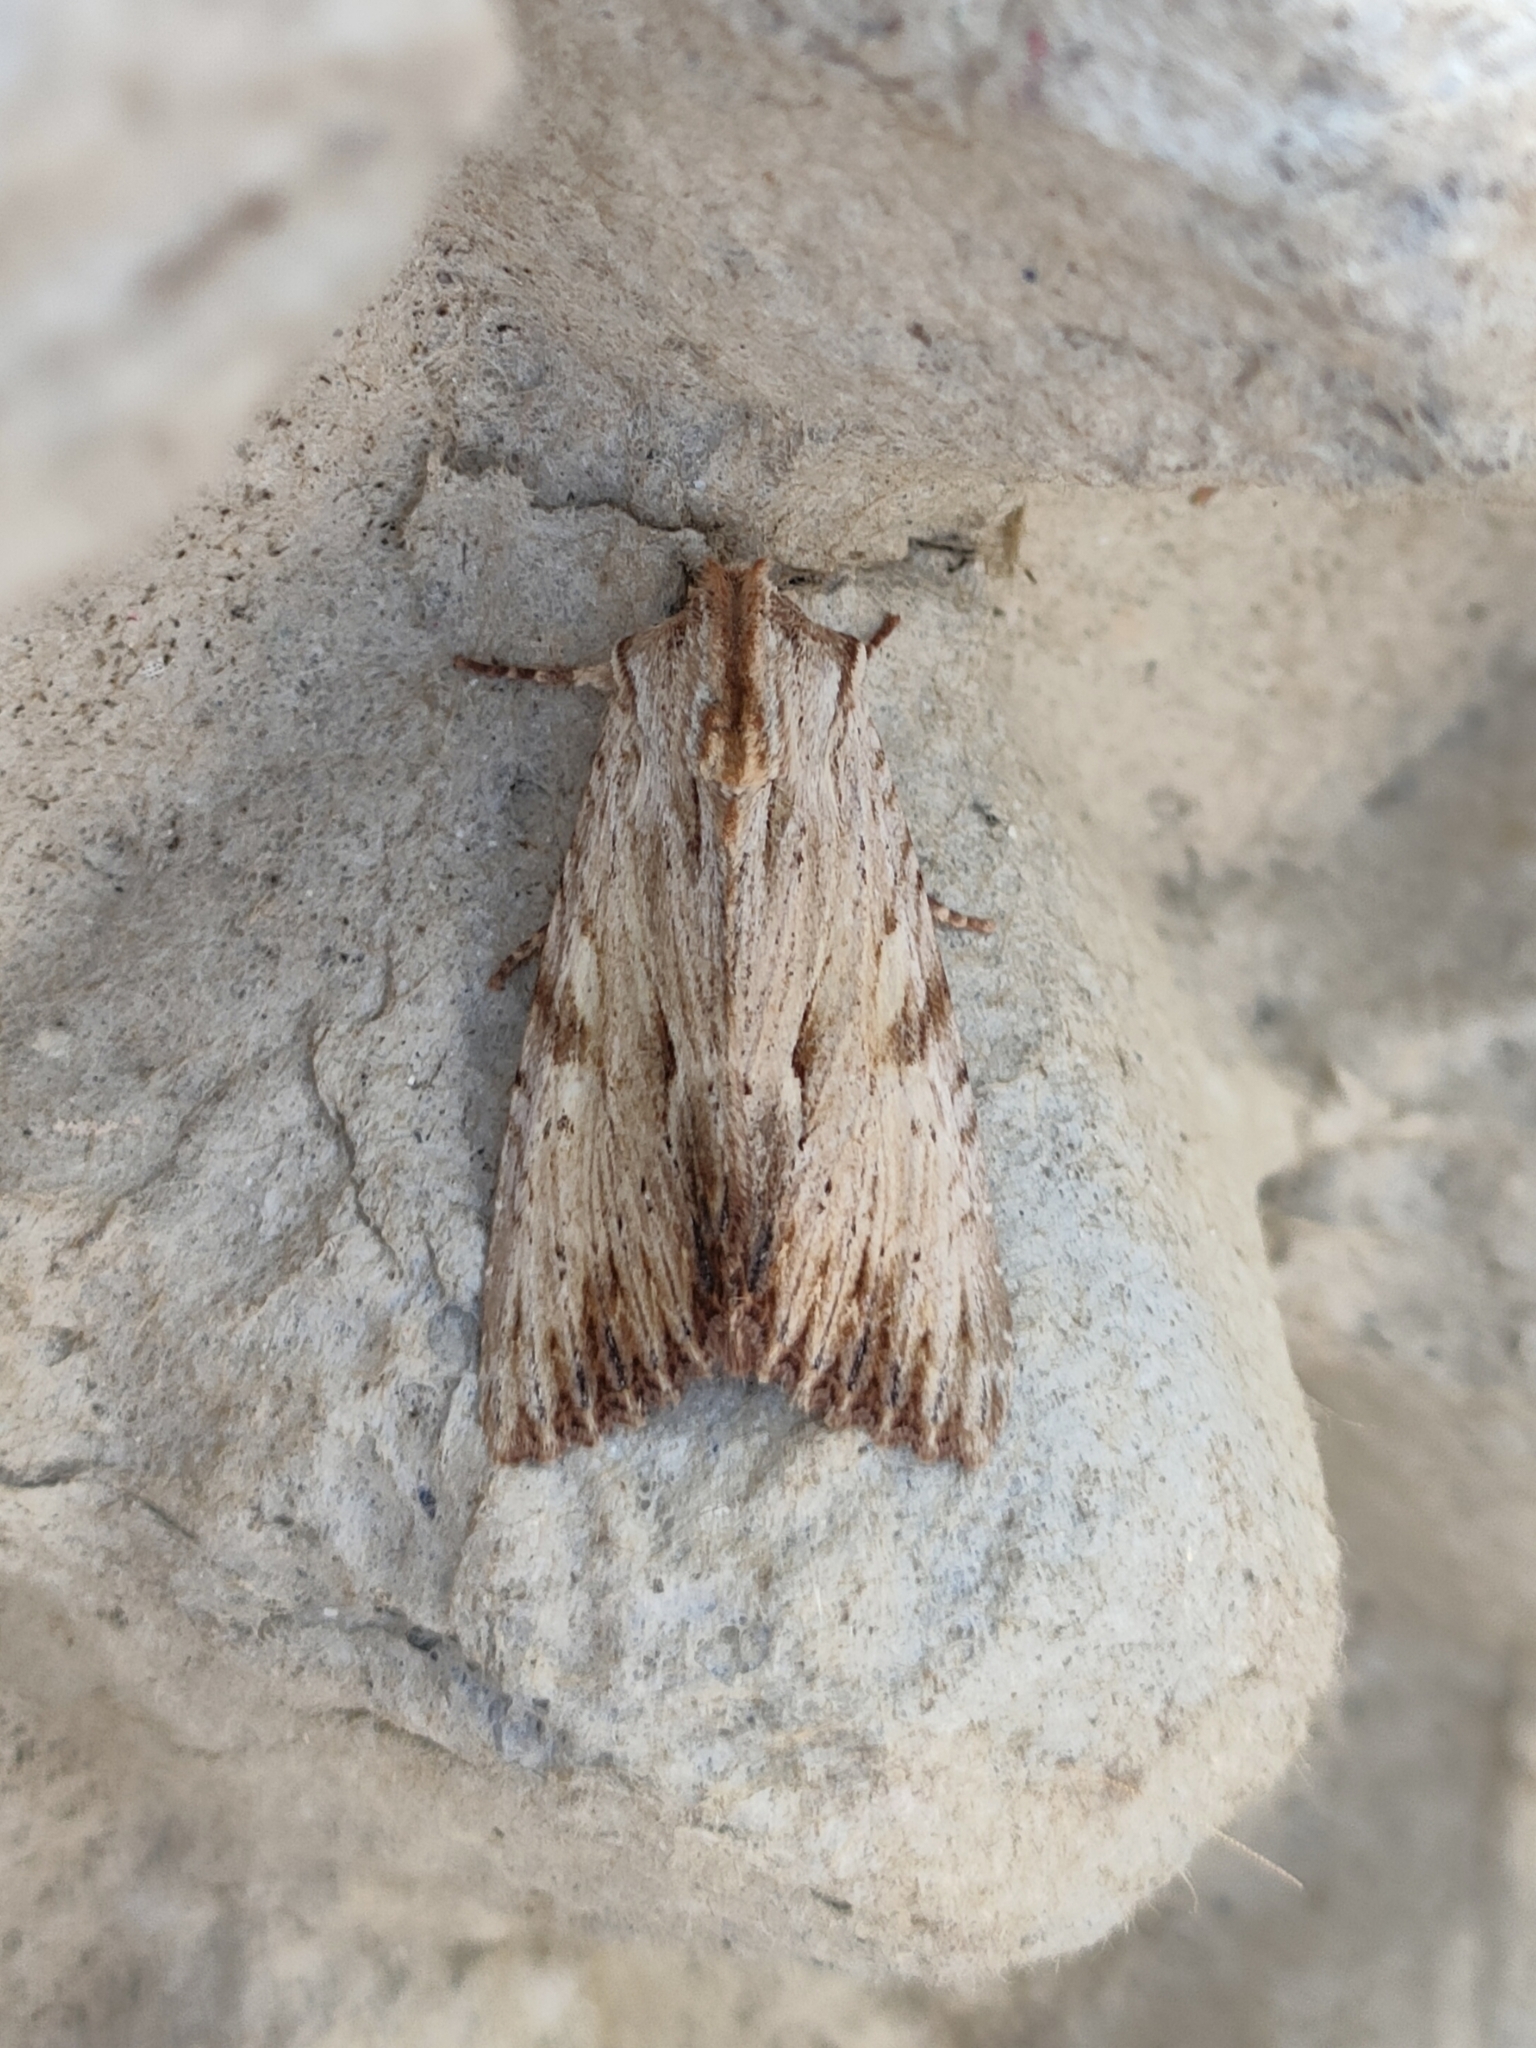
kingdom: Animalia
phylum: Arthropoda
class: Insecta
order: Lepidoptera
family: Noctuidae
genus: Apamea
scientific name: Apamea lithoxylaea
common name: Light arches
